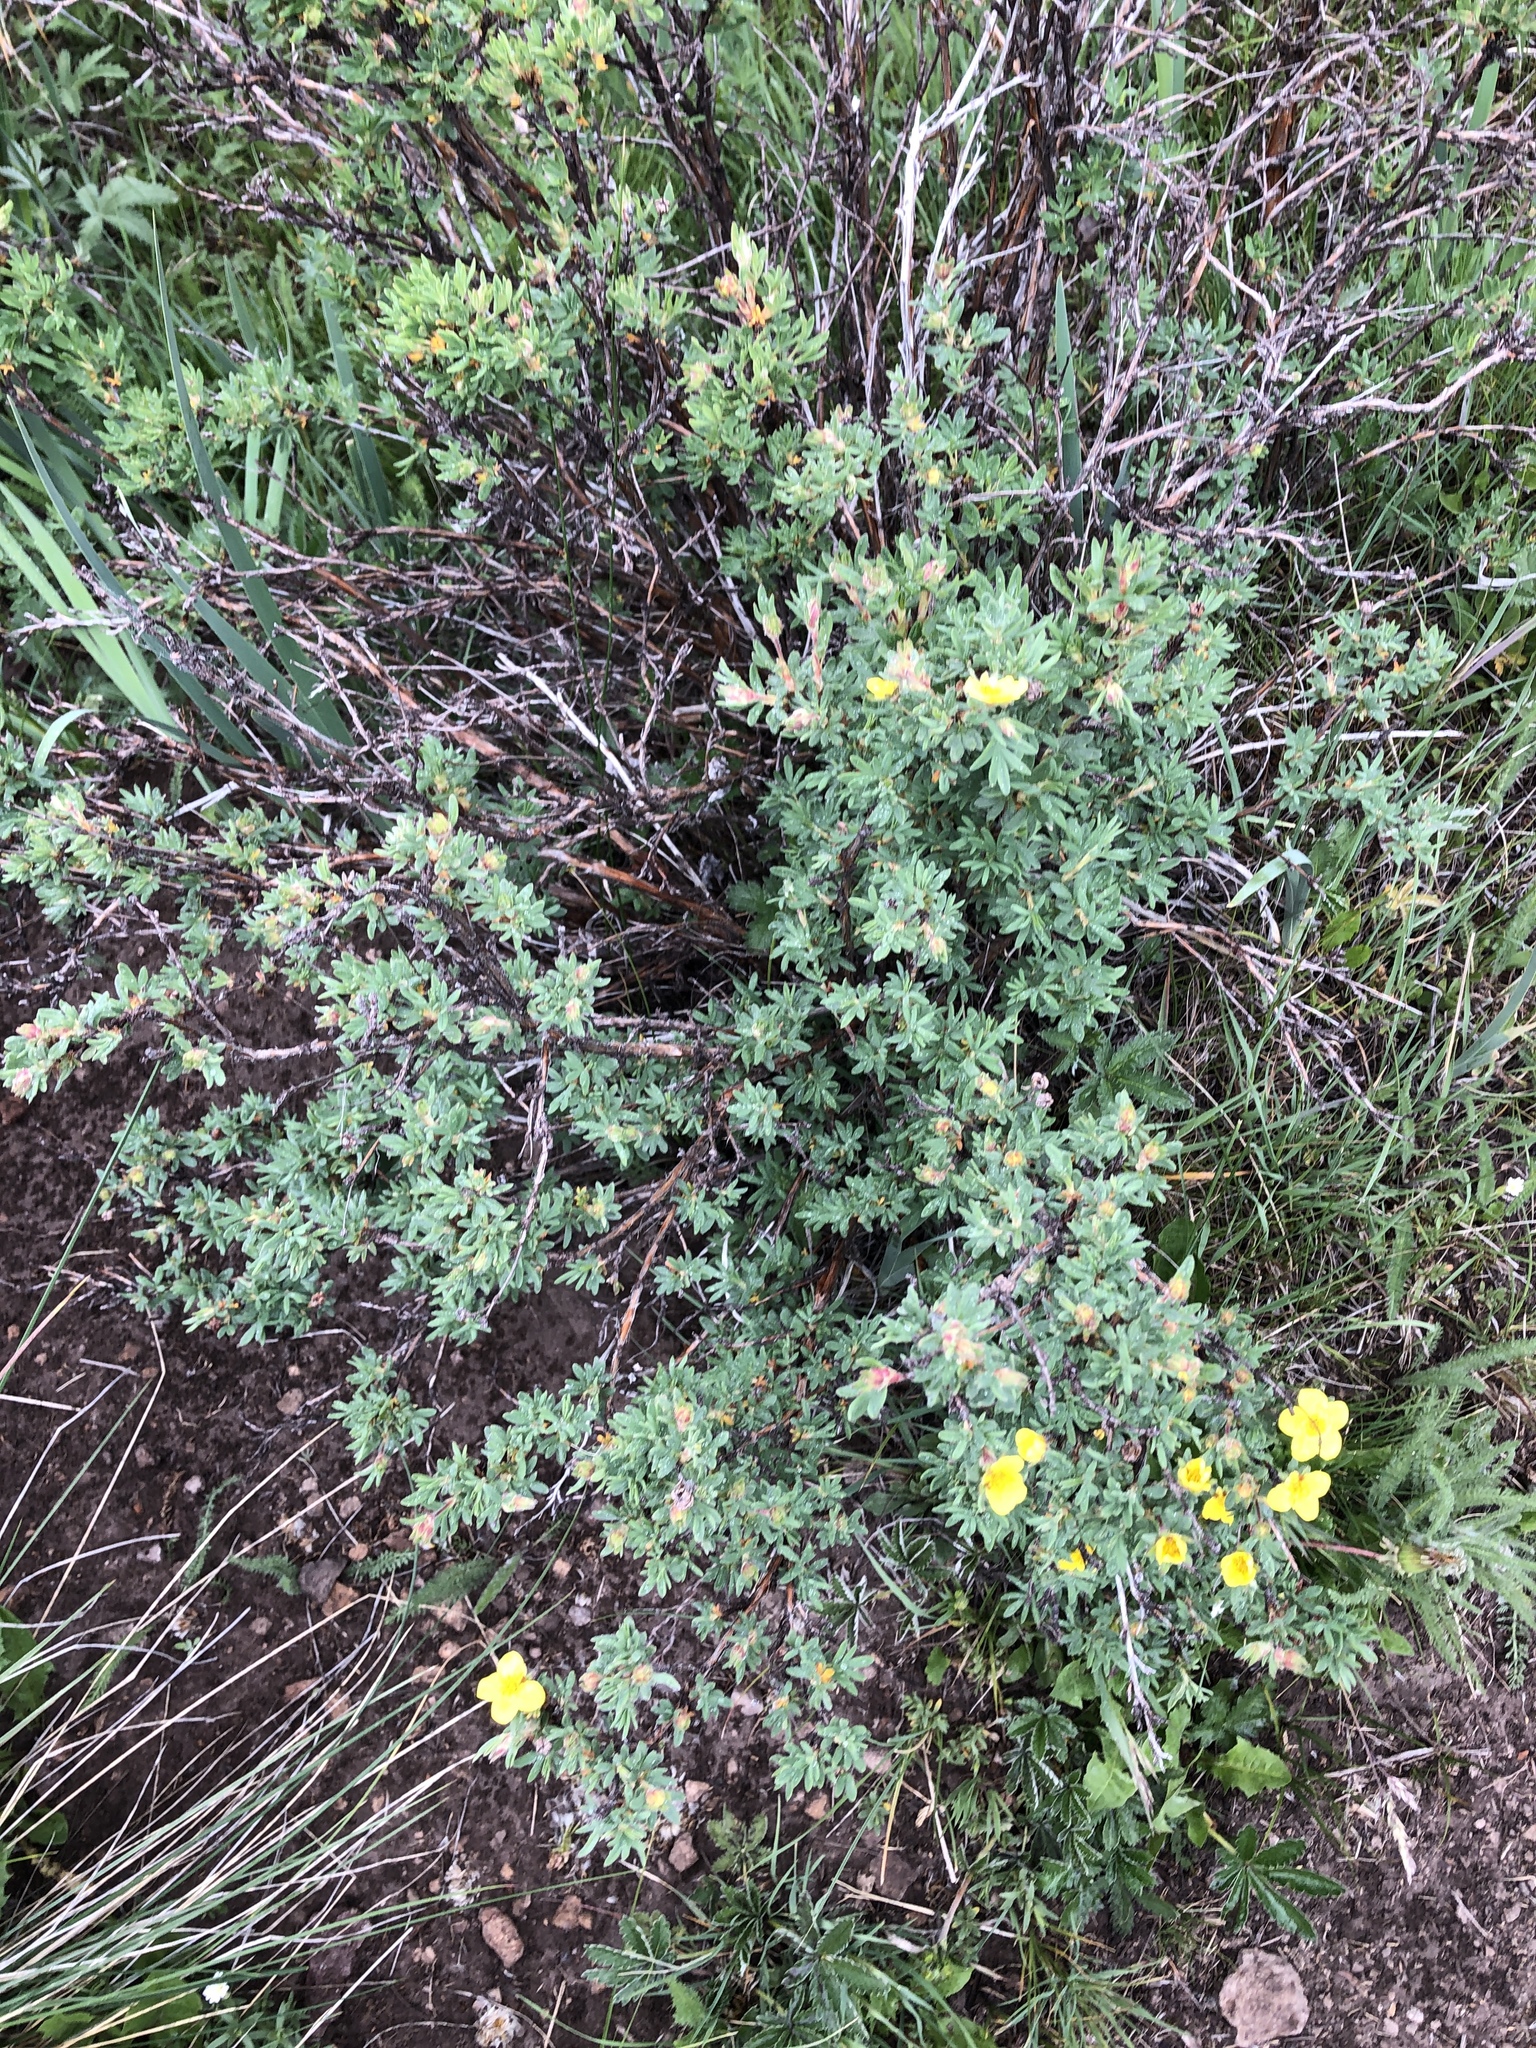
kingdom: Plantae
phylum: Tracheophyta
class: Magnoliopsida
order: Rosales
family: Rosaceae
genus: Dasiphora
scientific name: Dasiphora fruticosa
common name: Shrubby cinquefoil
